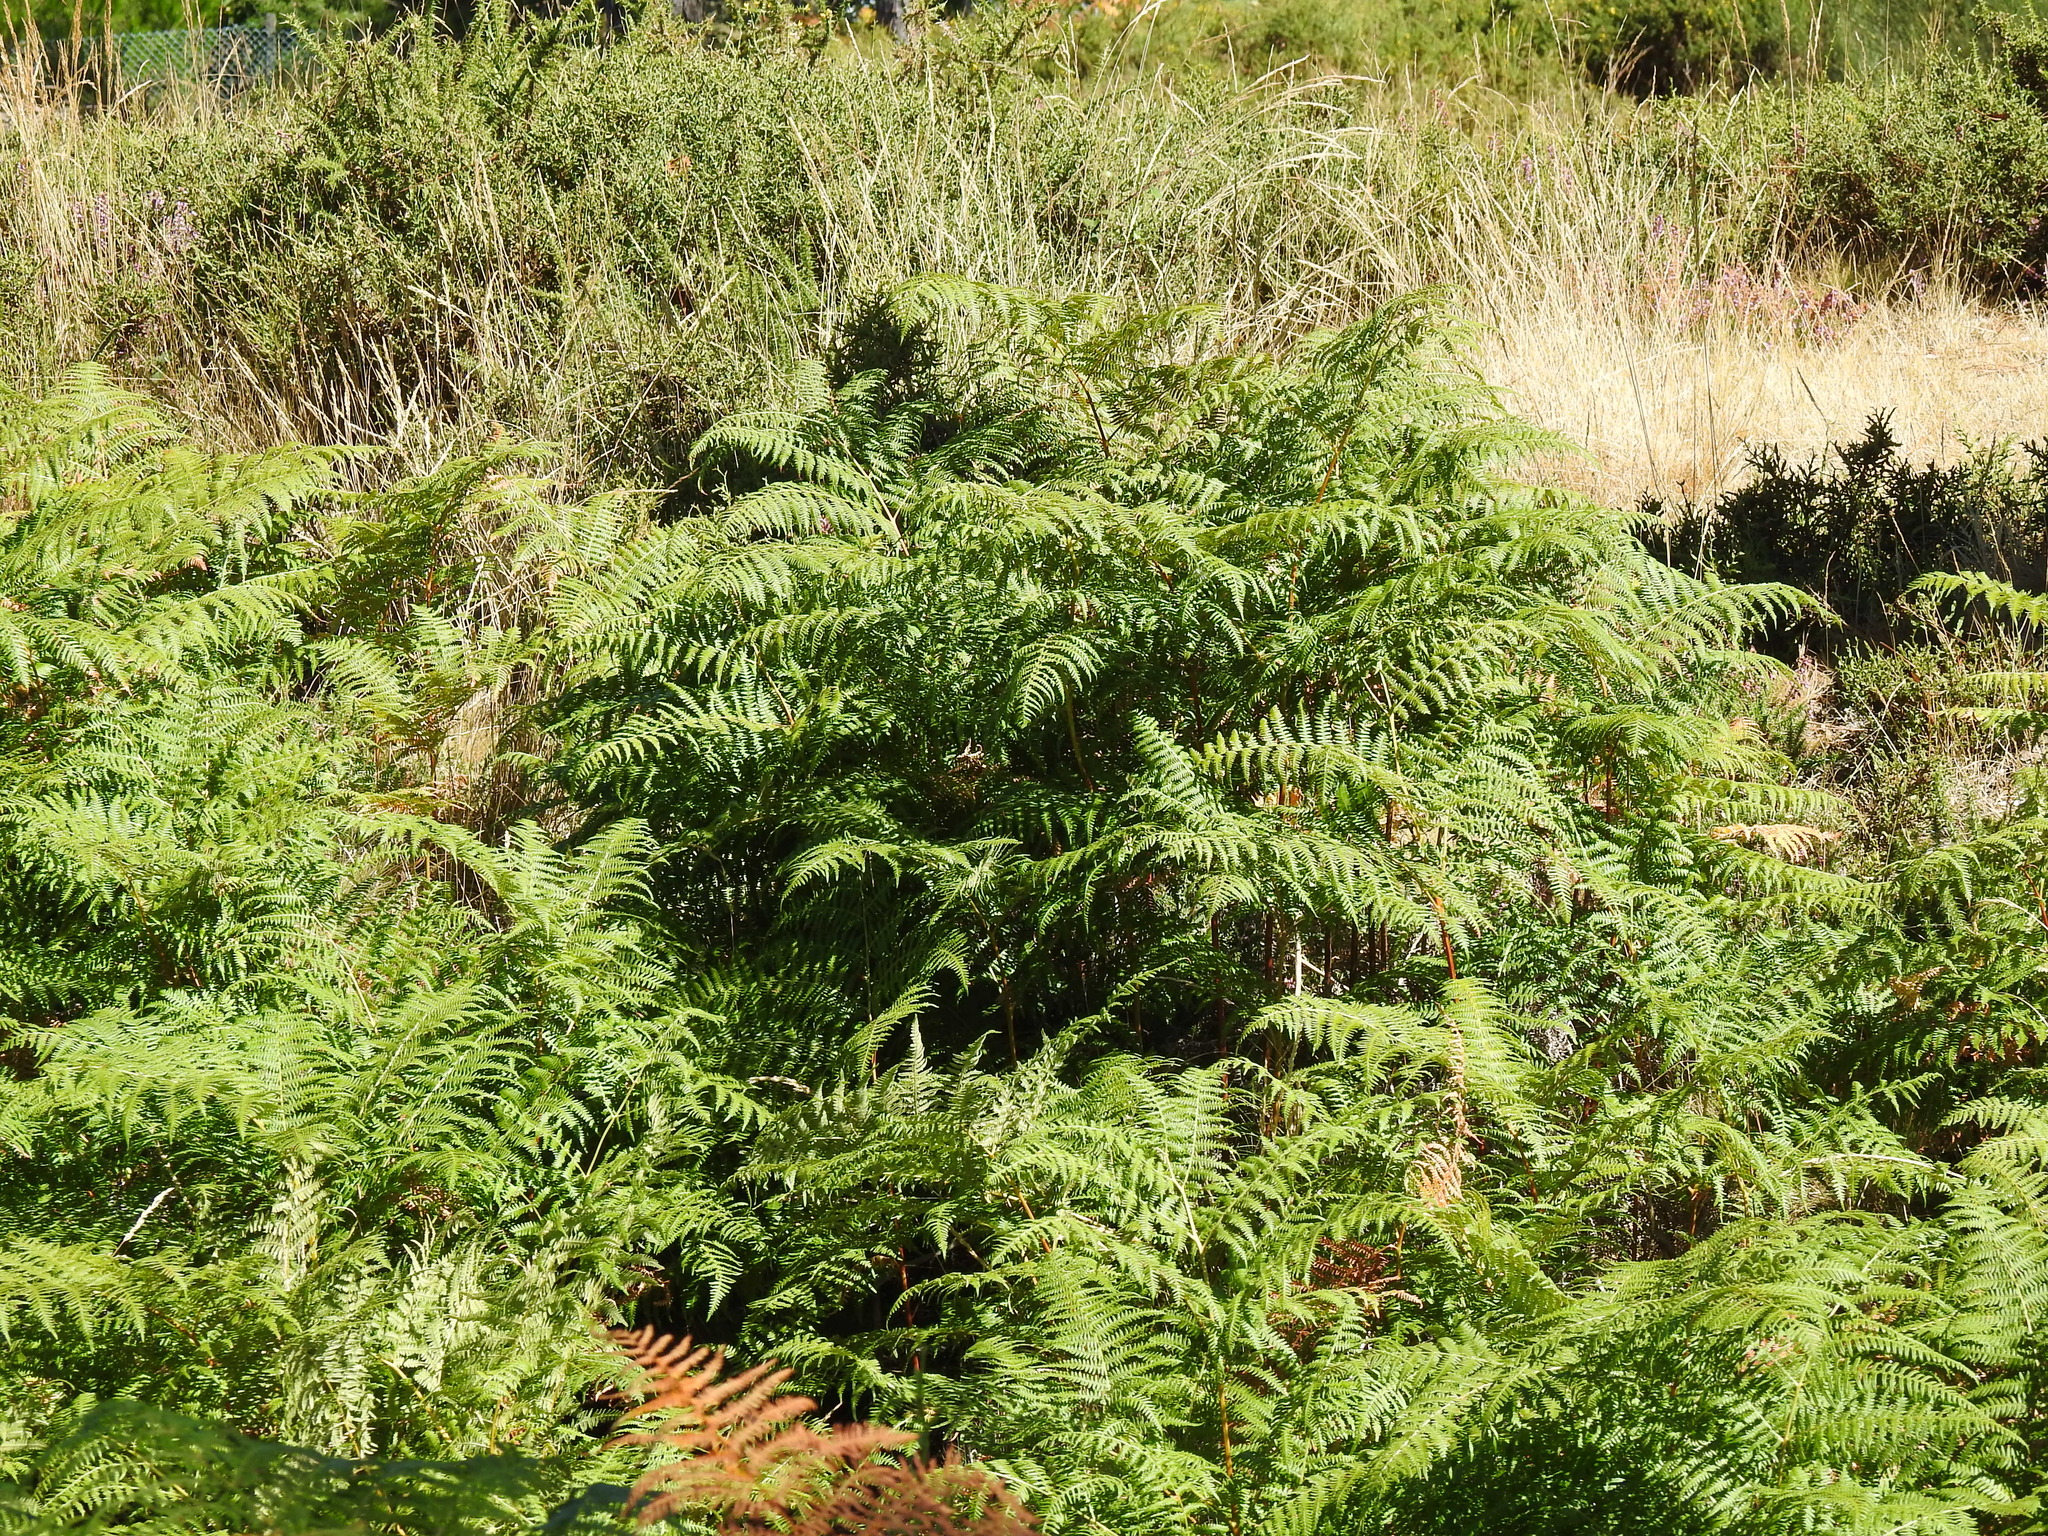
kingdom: Plantae
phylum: Tracheophyta
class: Polypodiopsida
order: Polypodiales
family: Dennstaedtiaceae
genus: Pteridium
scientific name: Pteridium aquilinum
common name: Bracken
